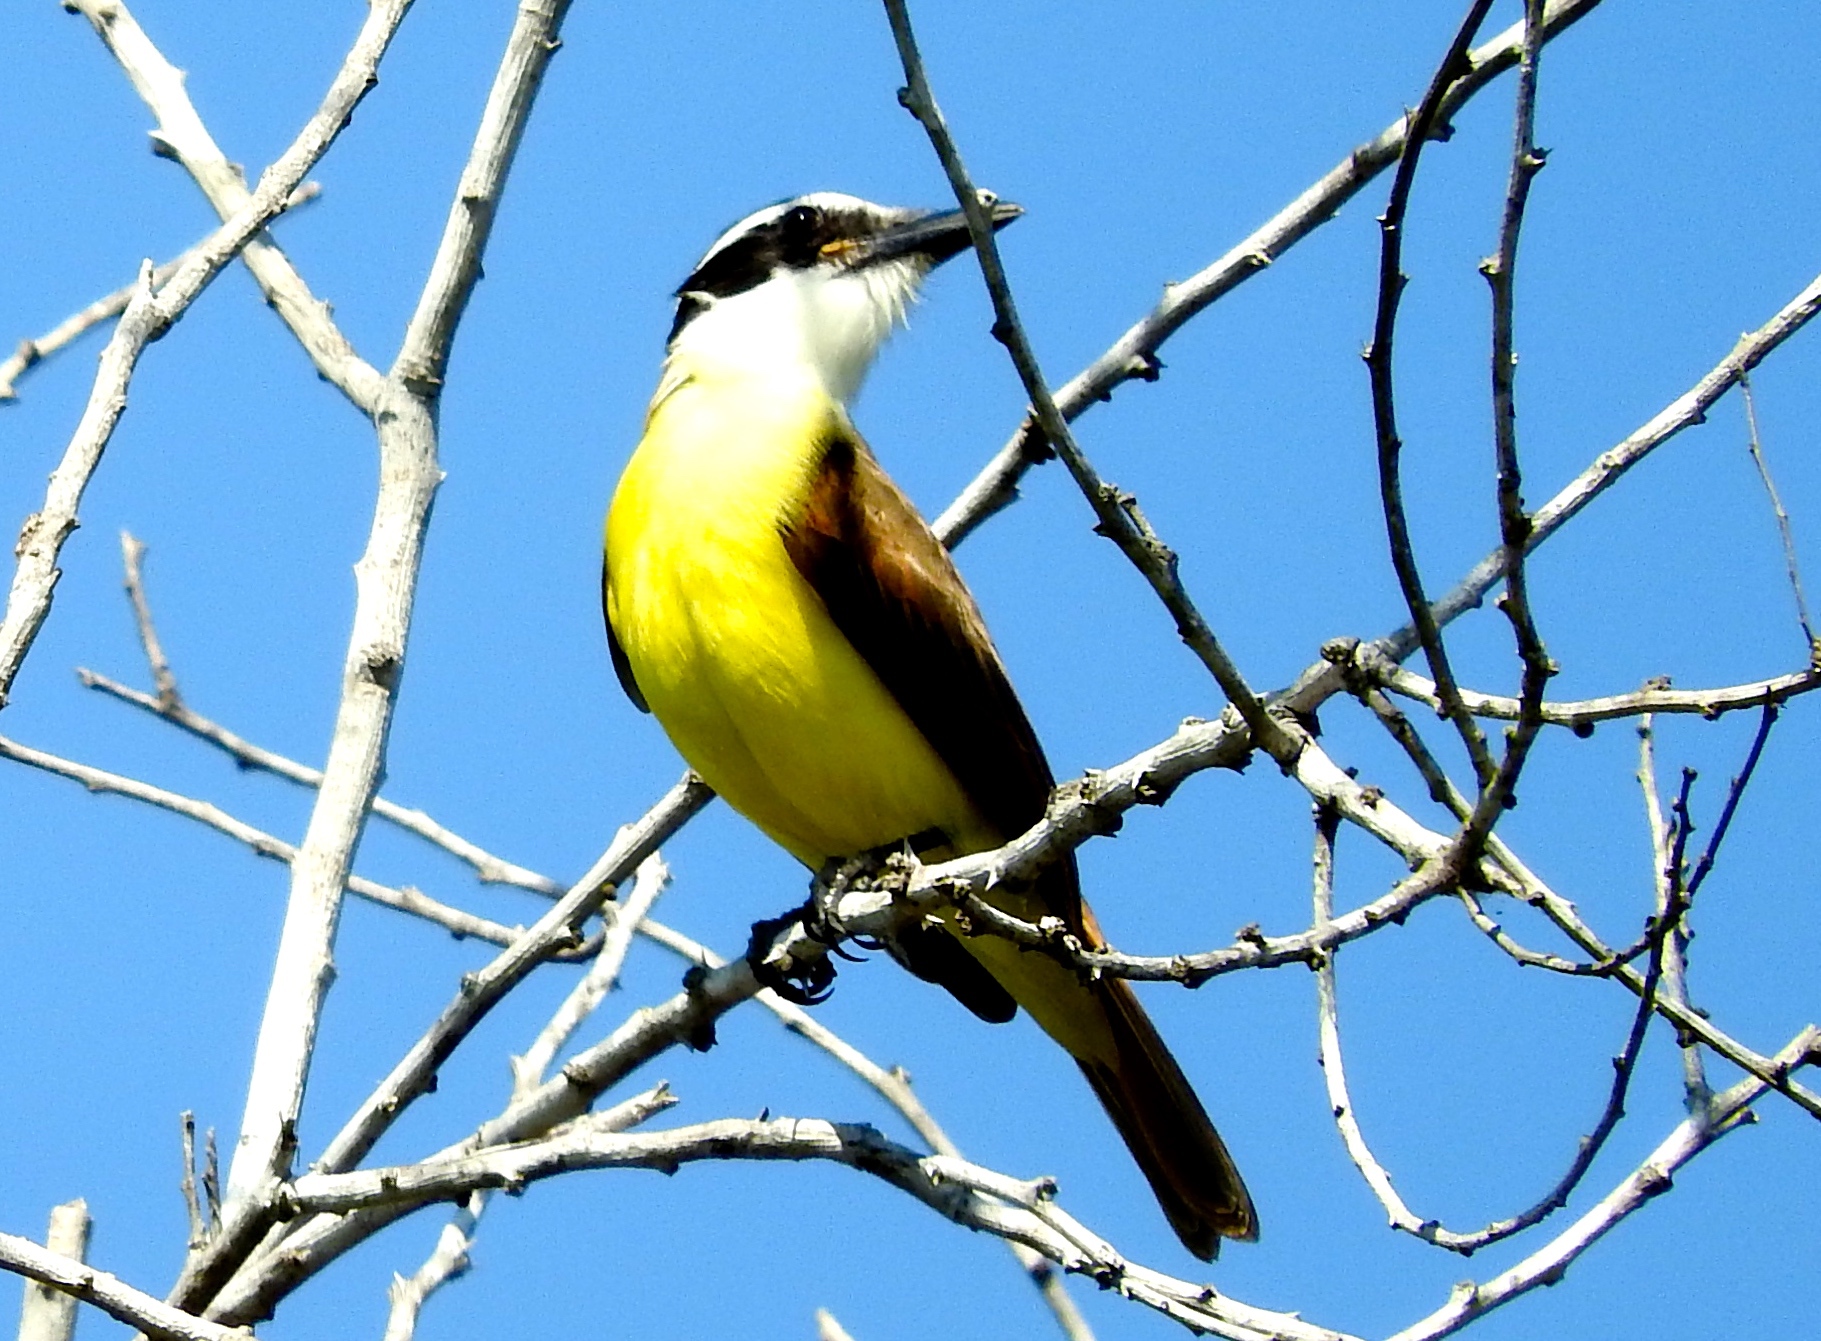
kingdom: Animalia
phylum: Chordata
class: Aves
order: Passeriformes
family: Tyrannidae
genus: Pitangus
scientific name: Pitangus sulphuratus
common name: Great kiskadee
